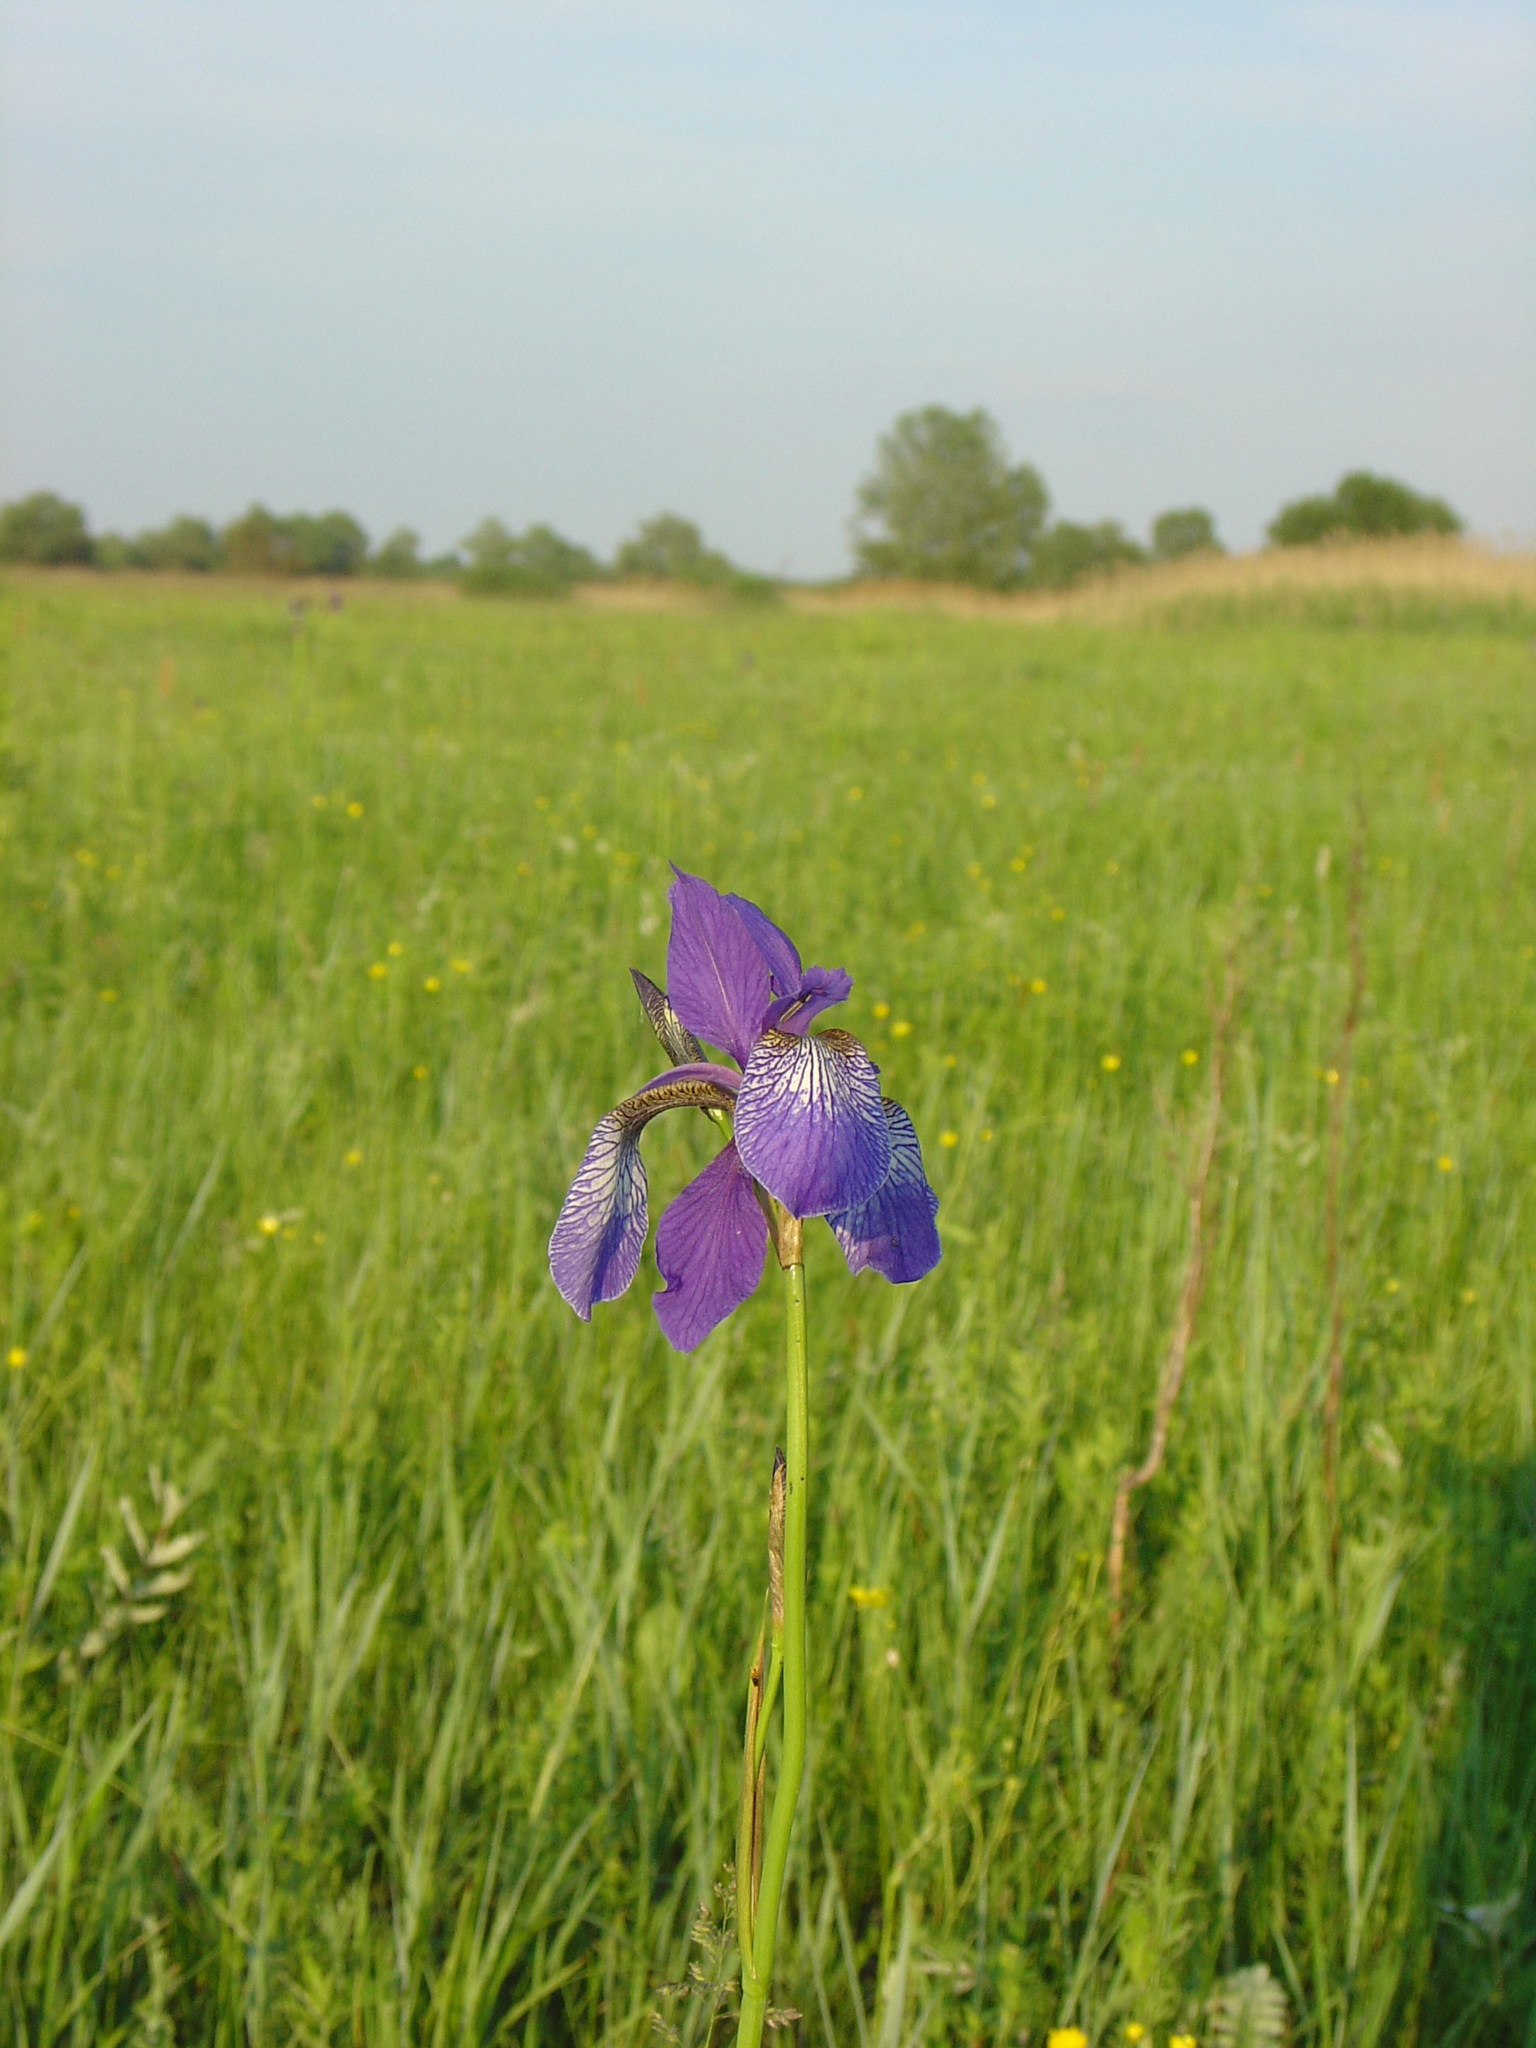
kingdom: Plantae
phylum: Tracheophyta
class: Liliopsida
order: Asparagales
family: Iridaceae
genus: Iris
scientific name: Iris sibirica
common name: Siberian iris
